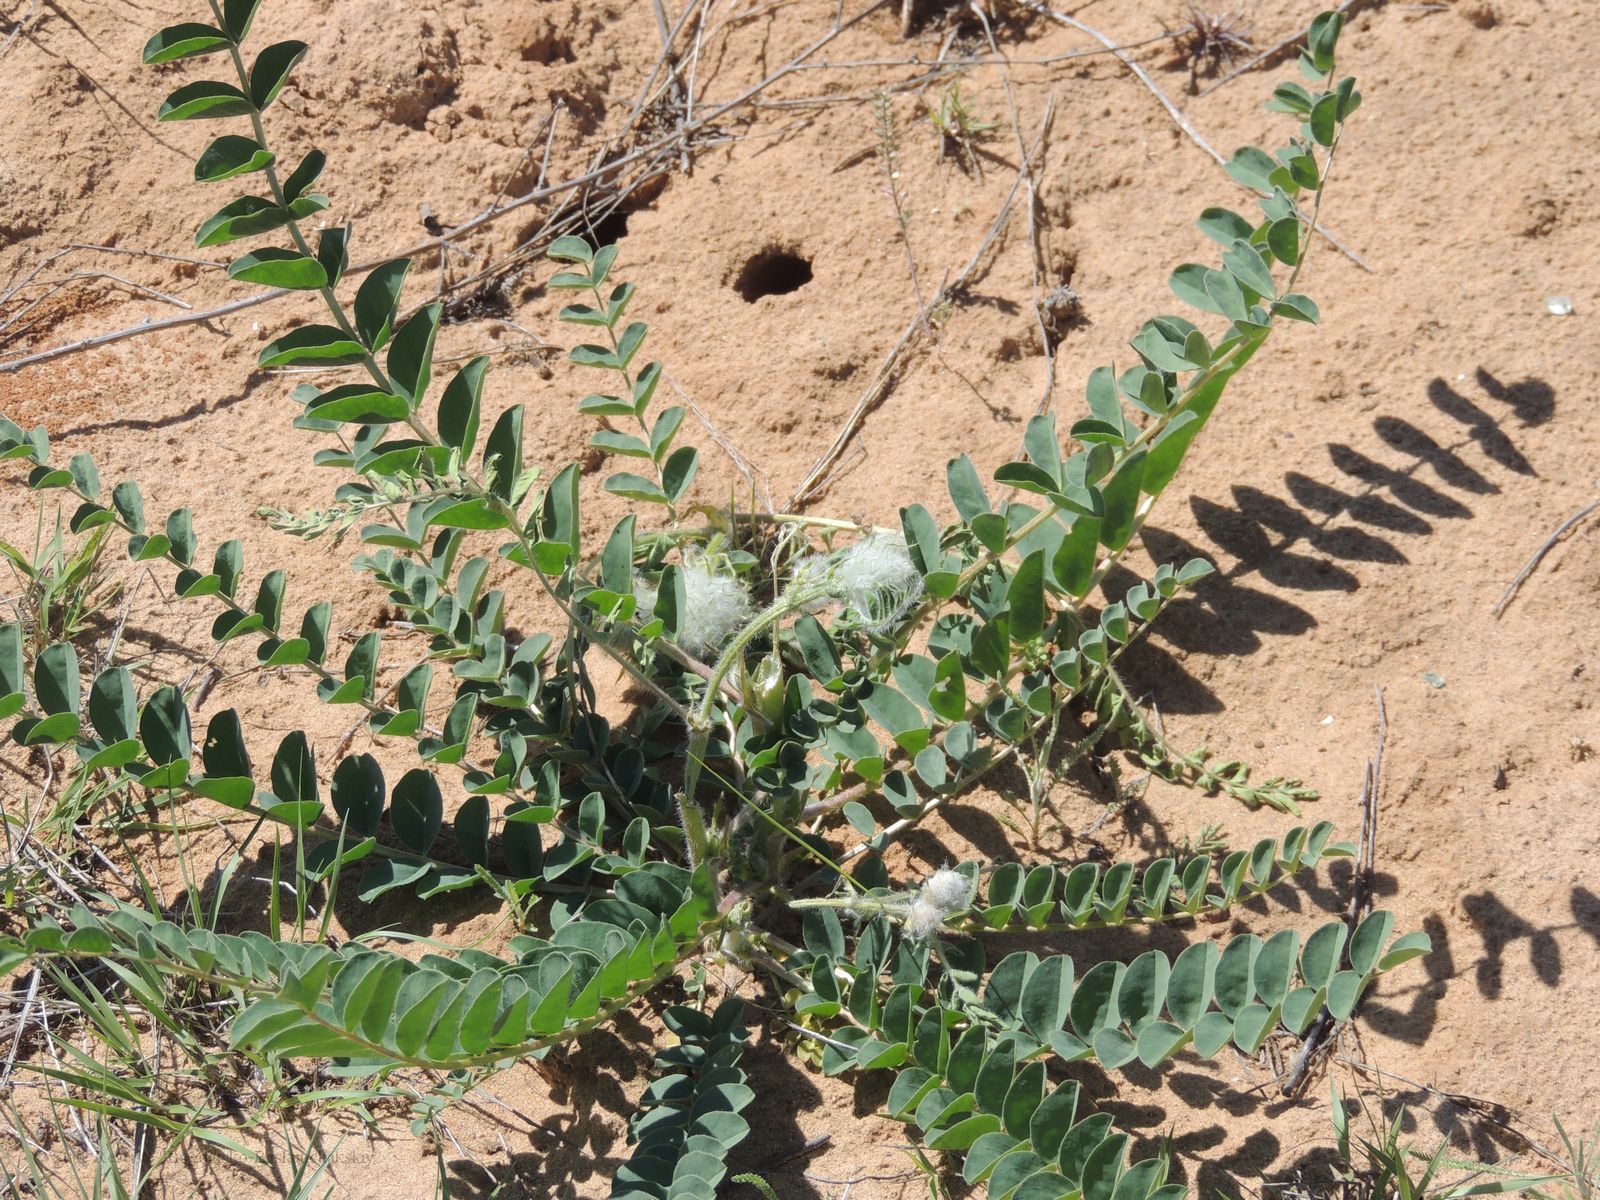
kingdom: Plantae
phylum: Tracheophyta
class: Magnoliopsida
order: Fabales
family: Fabaceae
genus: Astragalus
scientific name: Astragalus vulpinus
